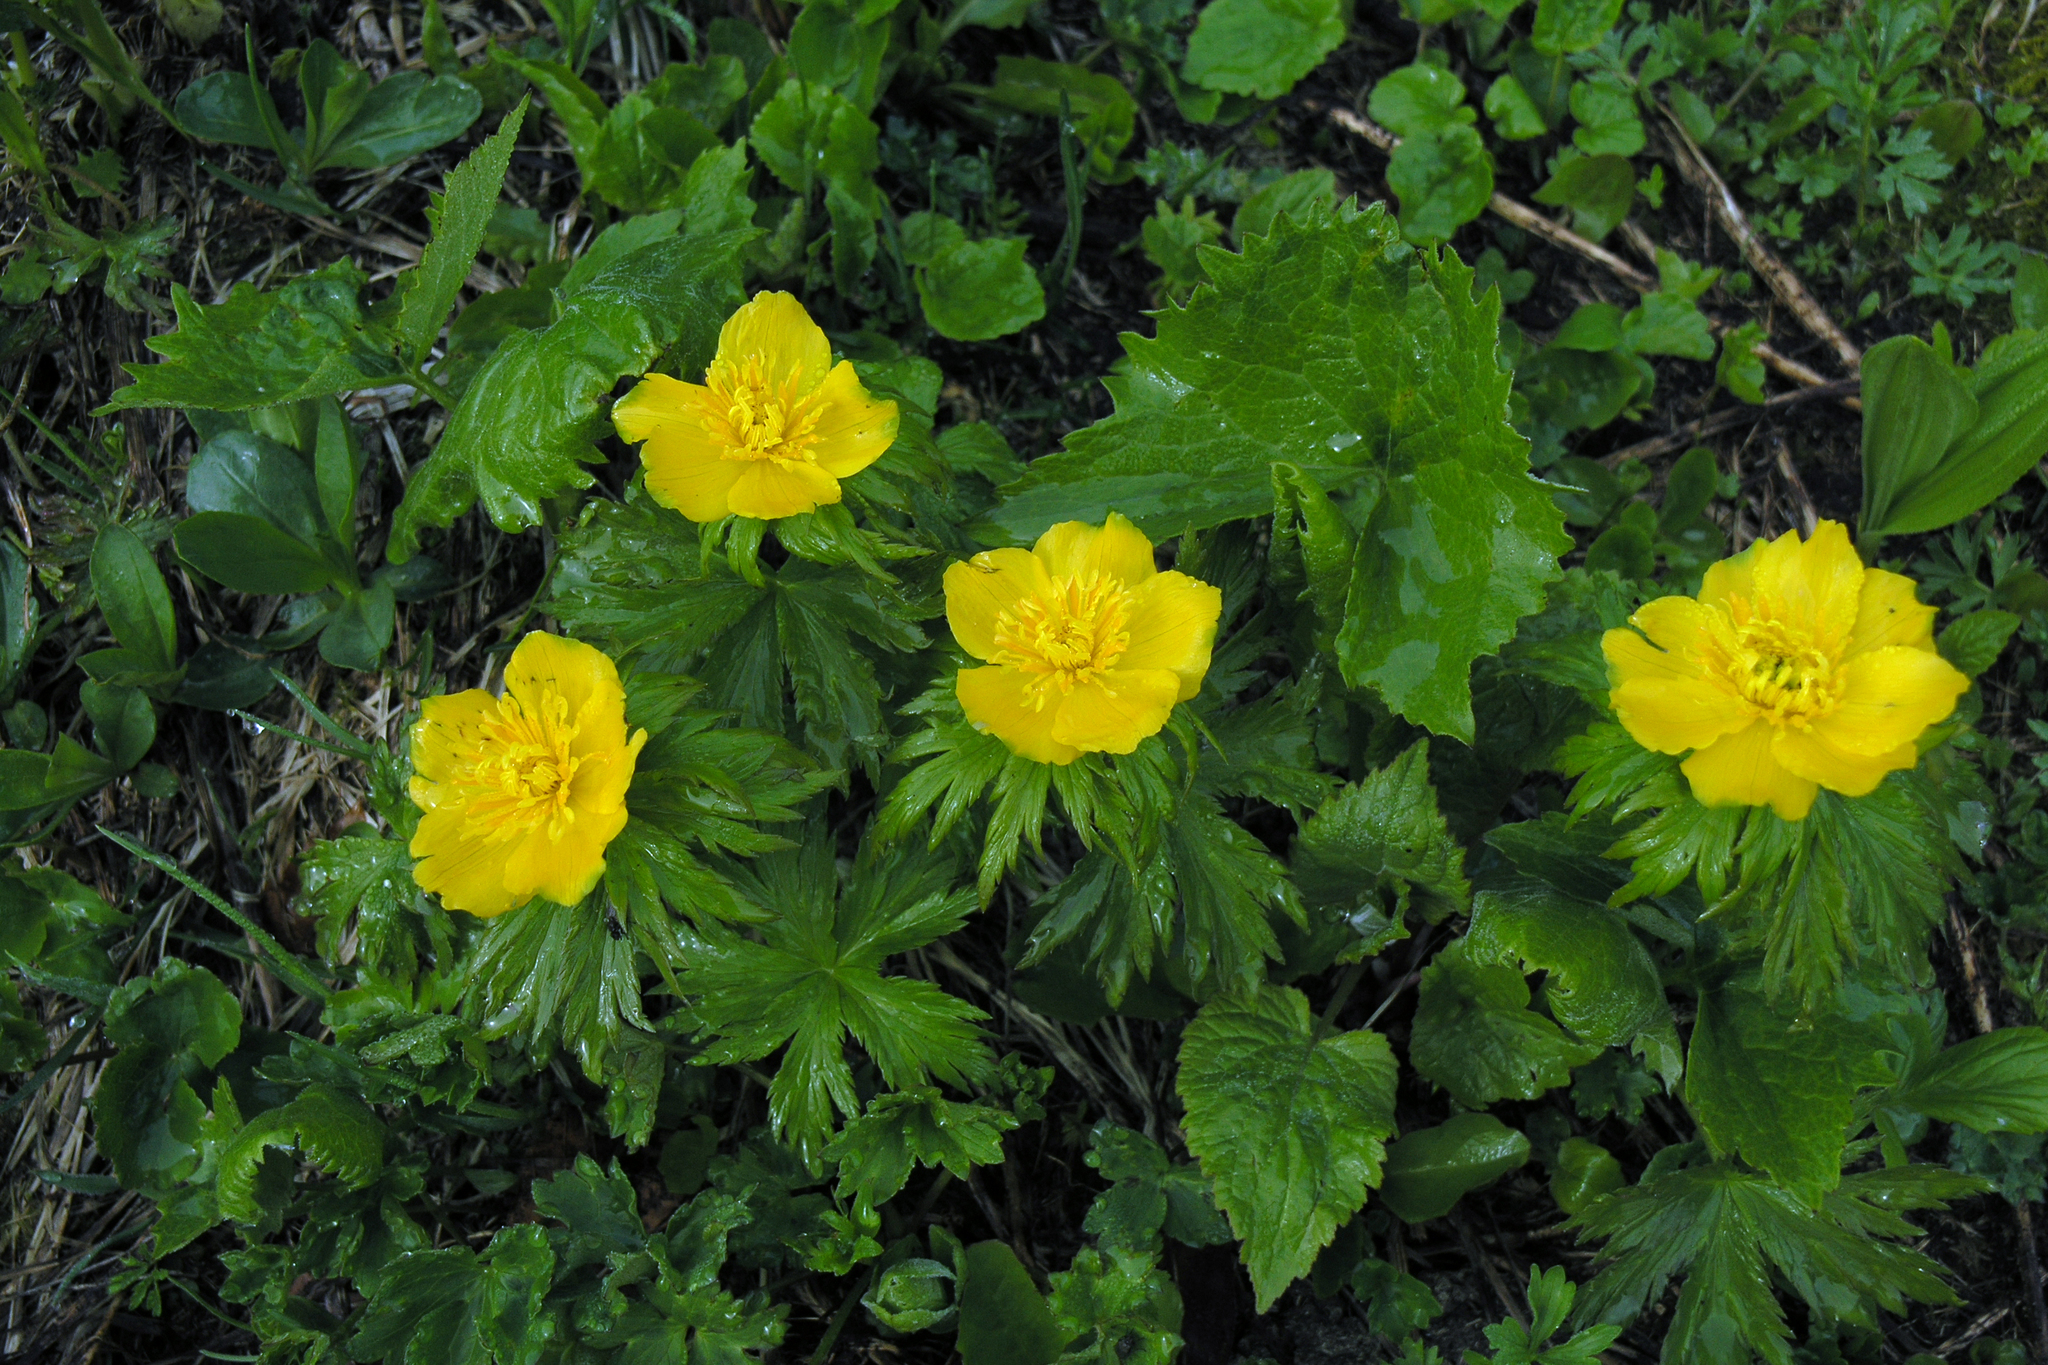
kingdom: Plantae
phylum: Tracheophyta
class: Magnoliopsida
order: Ranunculales
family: Ranunculaceae
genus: Trollius
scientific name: Trollius ranunculinus
